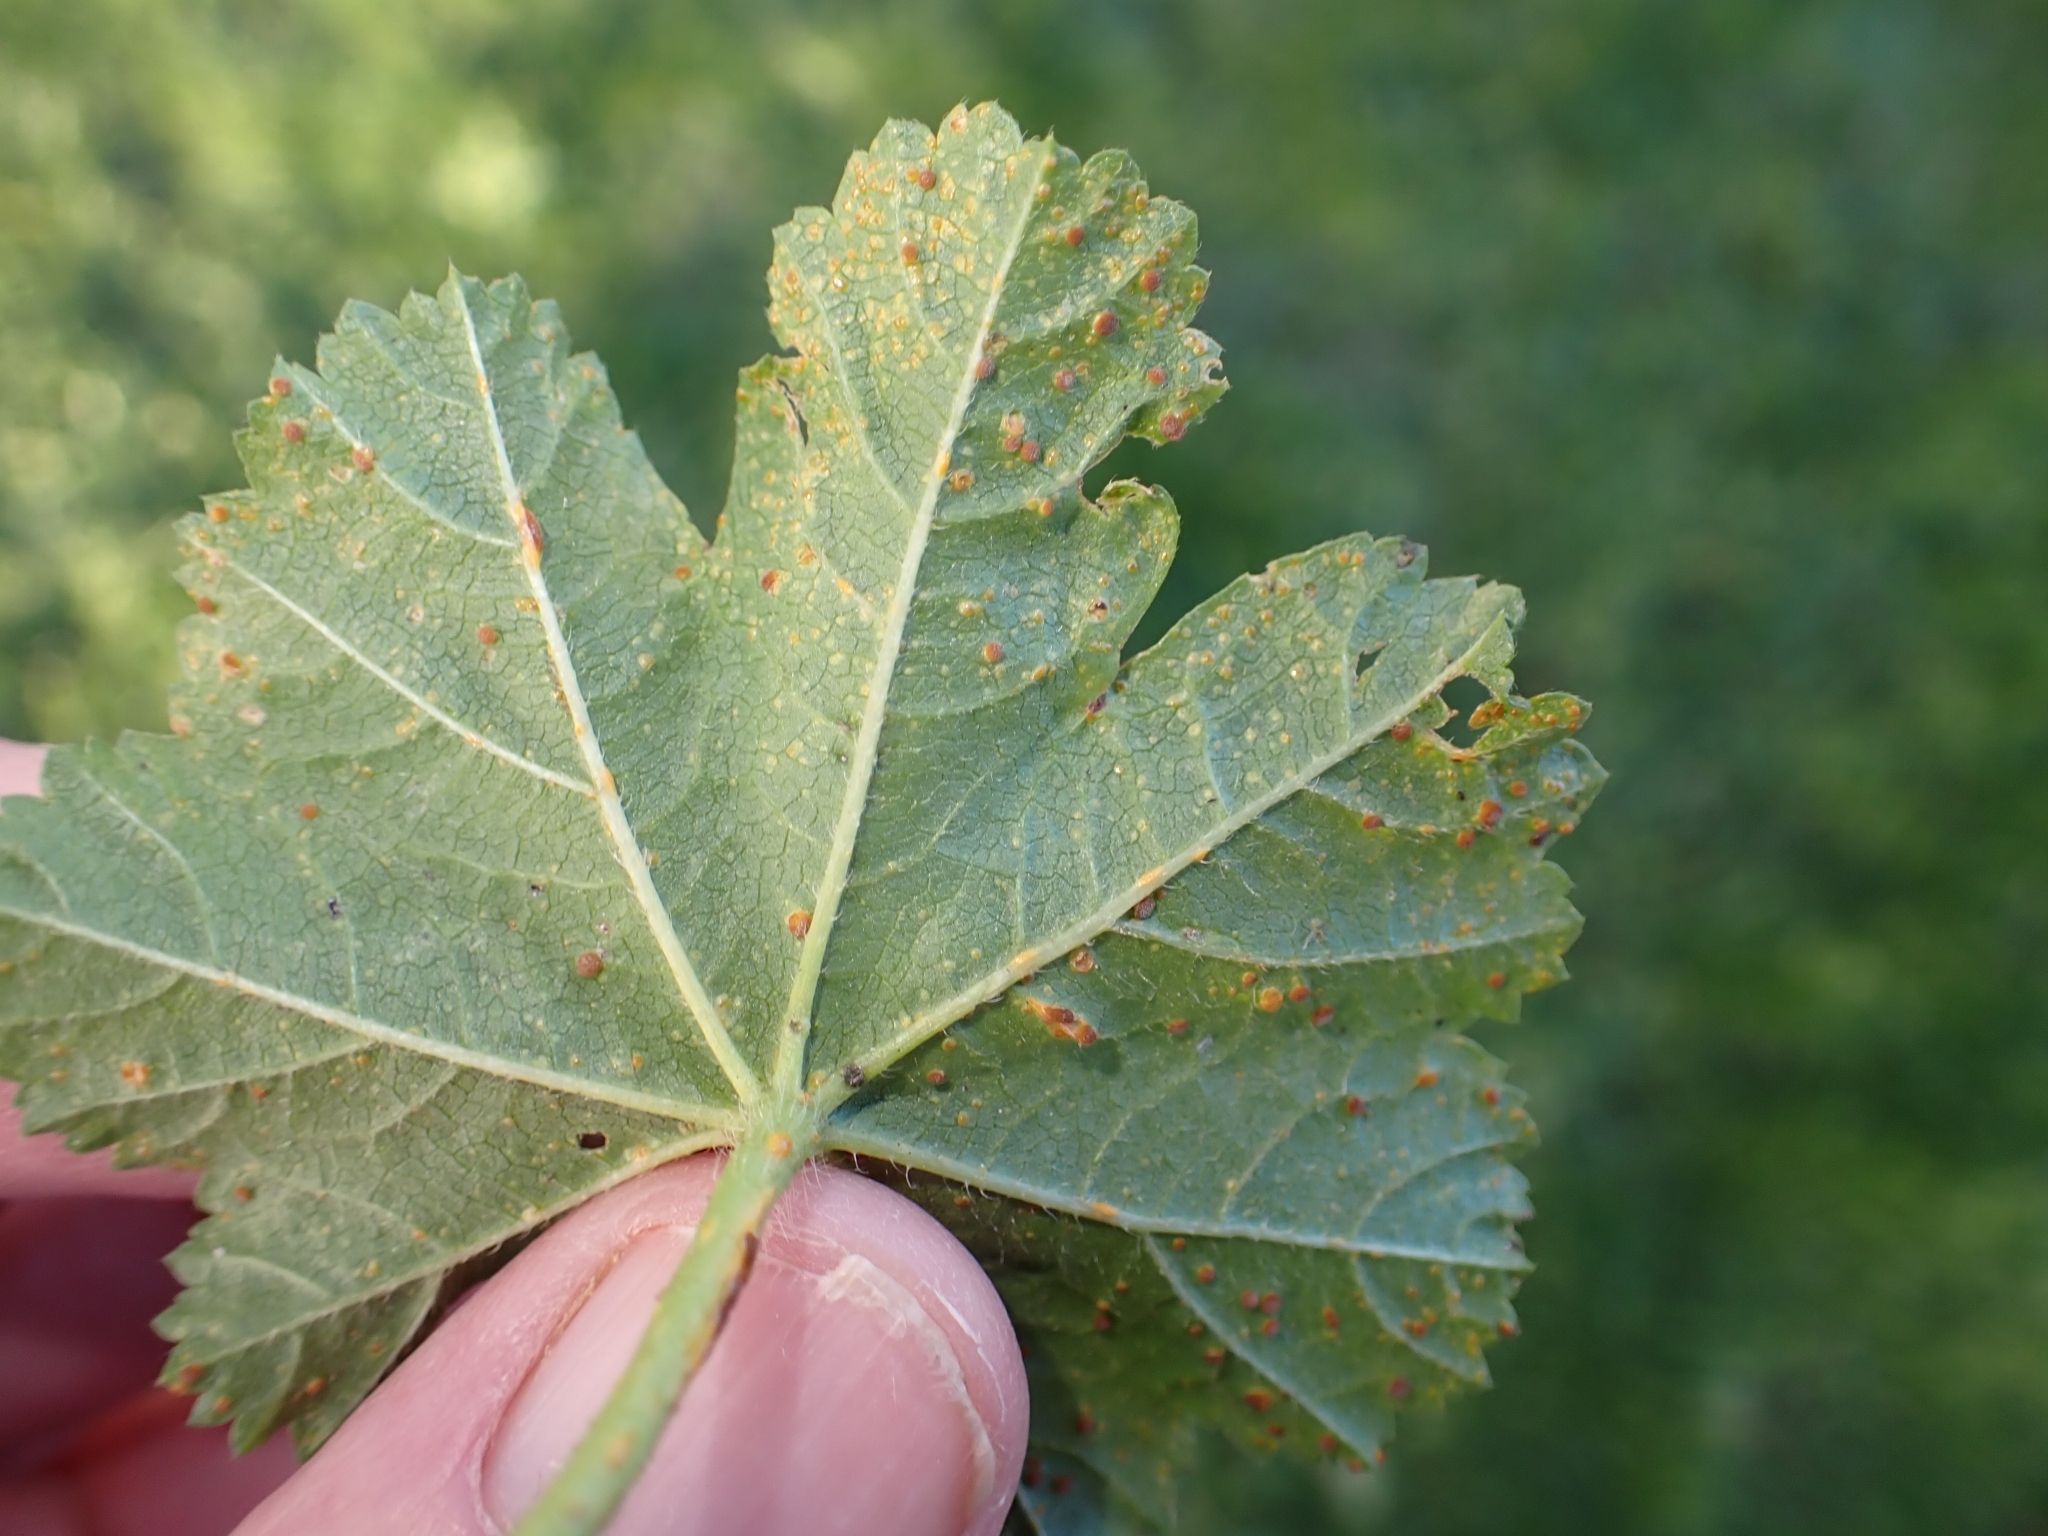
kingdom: Fungi
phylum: Basidiomycota
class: Pucciniomycetes
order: Pucciniales
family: Pucciniaceae
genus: Puccinia
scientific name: Puccinia malvacearum
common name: Hollyhock rust
